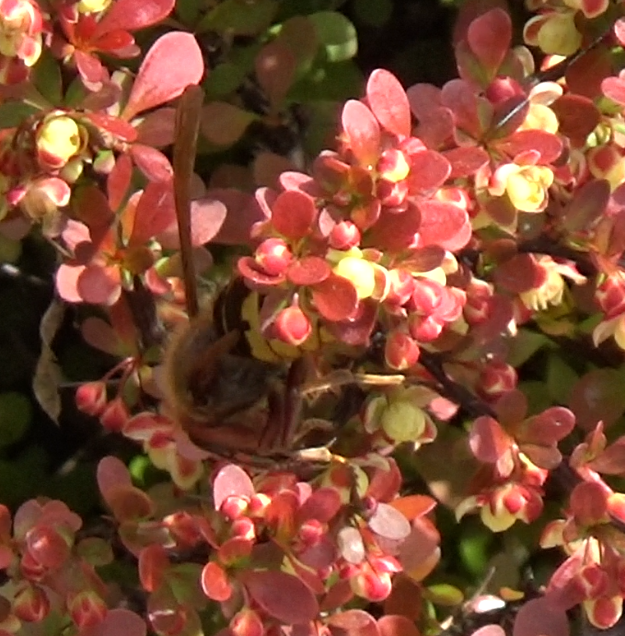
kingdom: Animalia
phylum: Arthropoda
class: Insecta
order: Hymenoptera
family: Vespidae
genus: Vespa
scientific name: Vespa crabro
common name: Hornet
